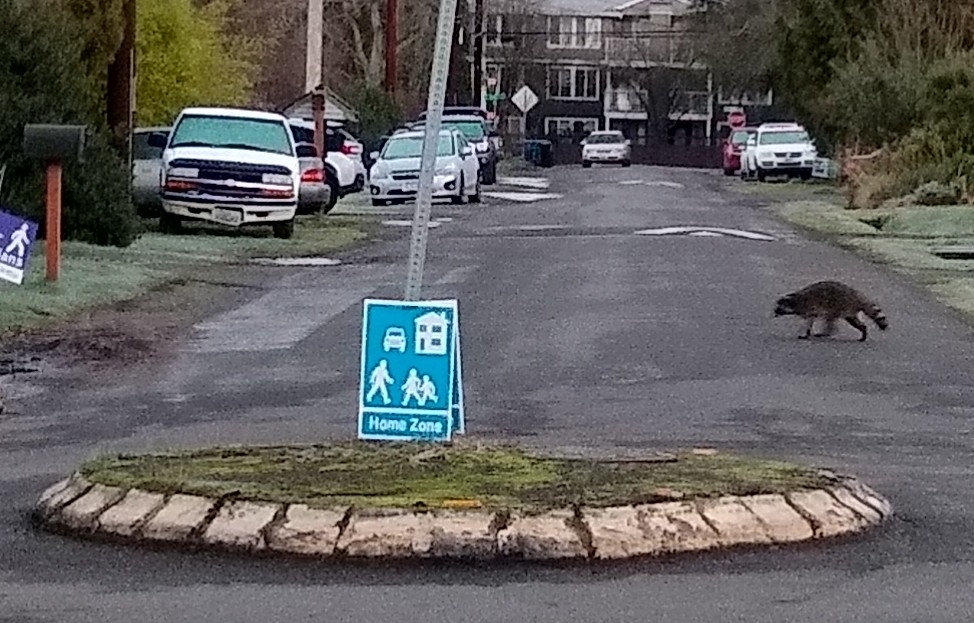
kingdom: Animalia
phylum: Chordata
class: Mammalia
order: Carnivora
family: Procyonidae
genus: Procyon
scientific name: Procyon lotor
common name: Raccoon
